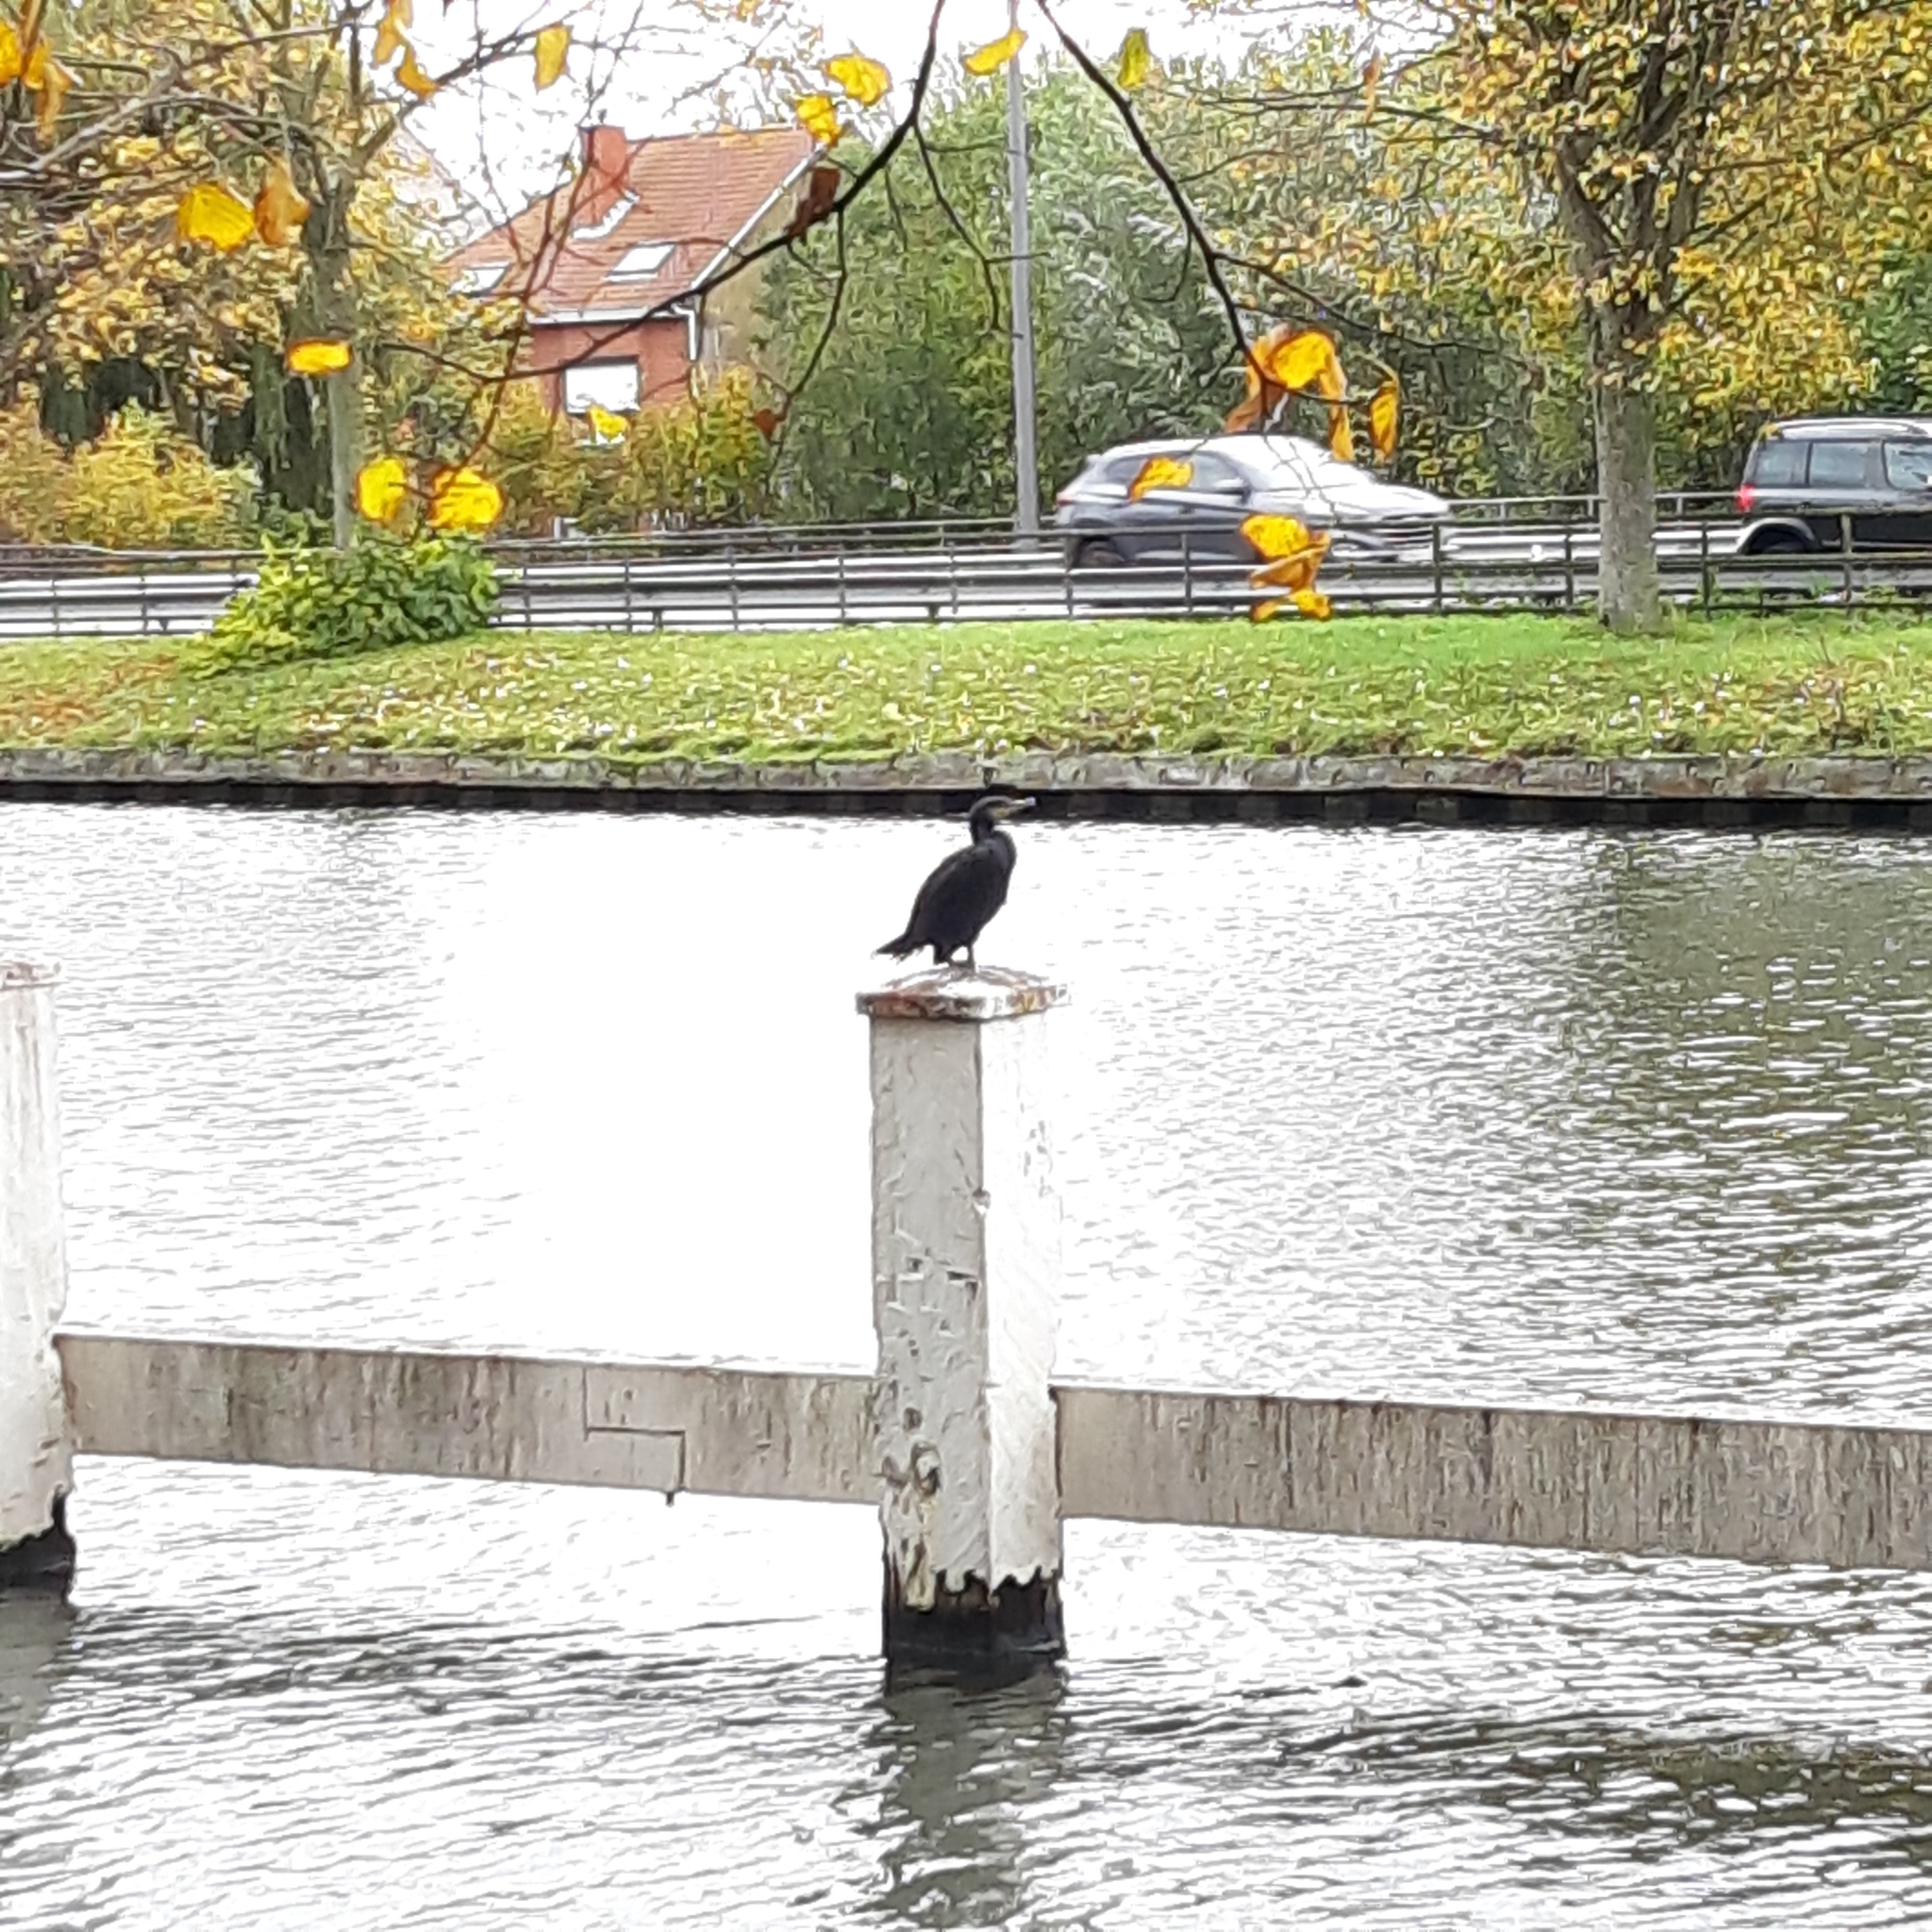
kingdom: Animalia
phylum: Chordata
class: Aves
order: Suliformes
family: Phalacrocoracidae
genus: Phalacrocorax
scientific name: Phalacrocorax carbo
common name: Great cormorant
